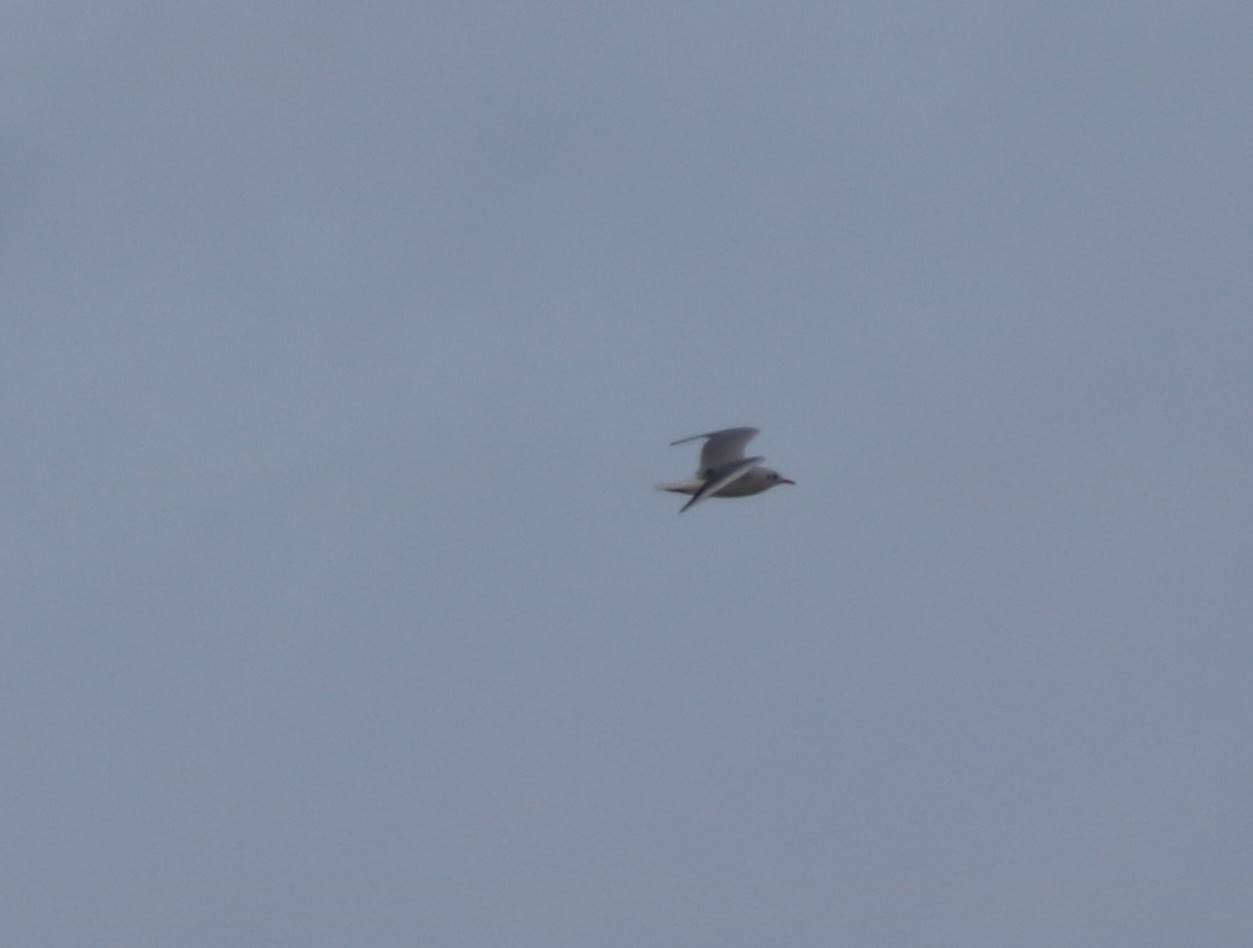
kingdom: Animalia
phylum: Chordata
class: Aves
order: Charadriiformes
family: Laridae
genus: Chroicocephalus
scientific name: Chroicocephalus ridibundus
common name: Black-headed gull
